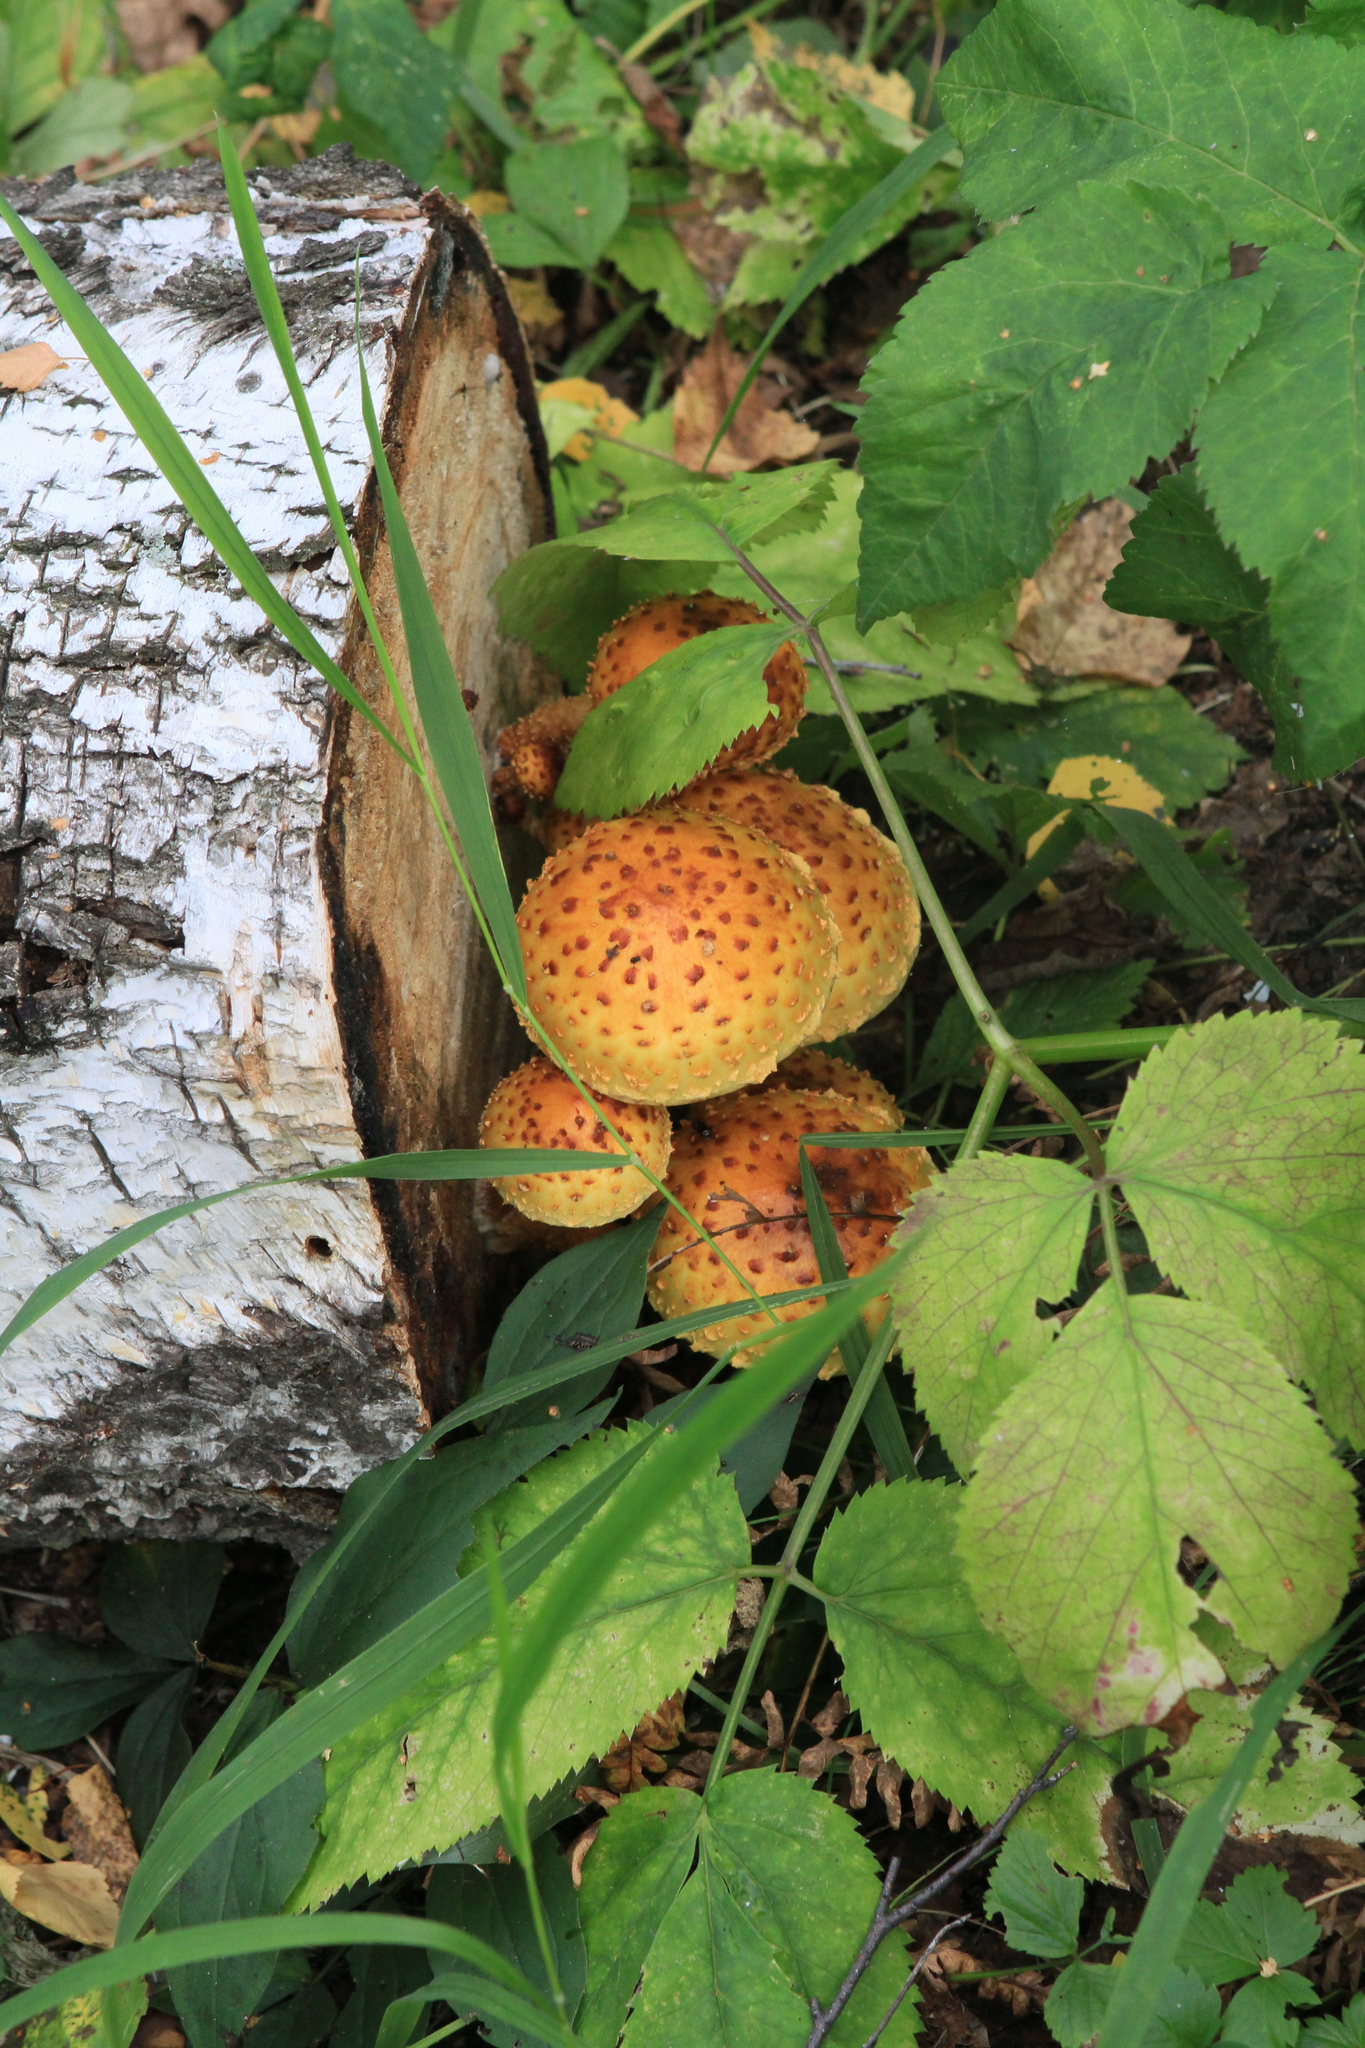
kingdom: Plantae
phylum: Tracheophyta
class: Magnoliopsida
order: Apiales
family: Apiaceae
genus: Aegopodium
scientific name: Aegopodium podagraria
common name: Ground-elder
